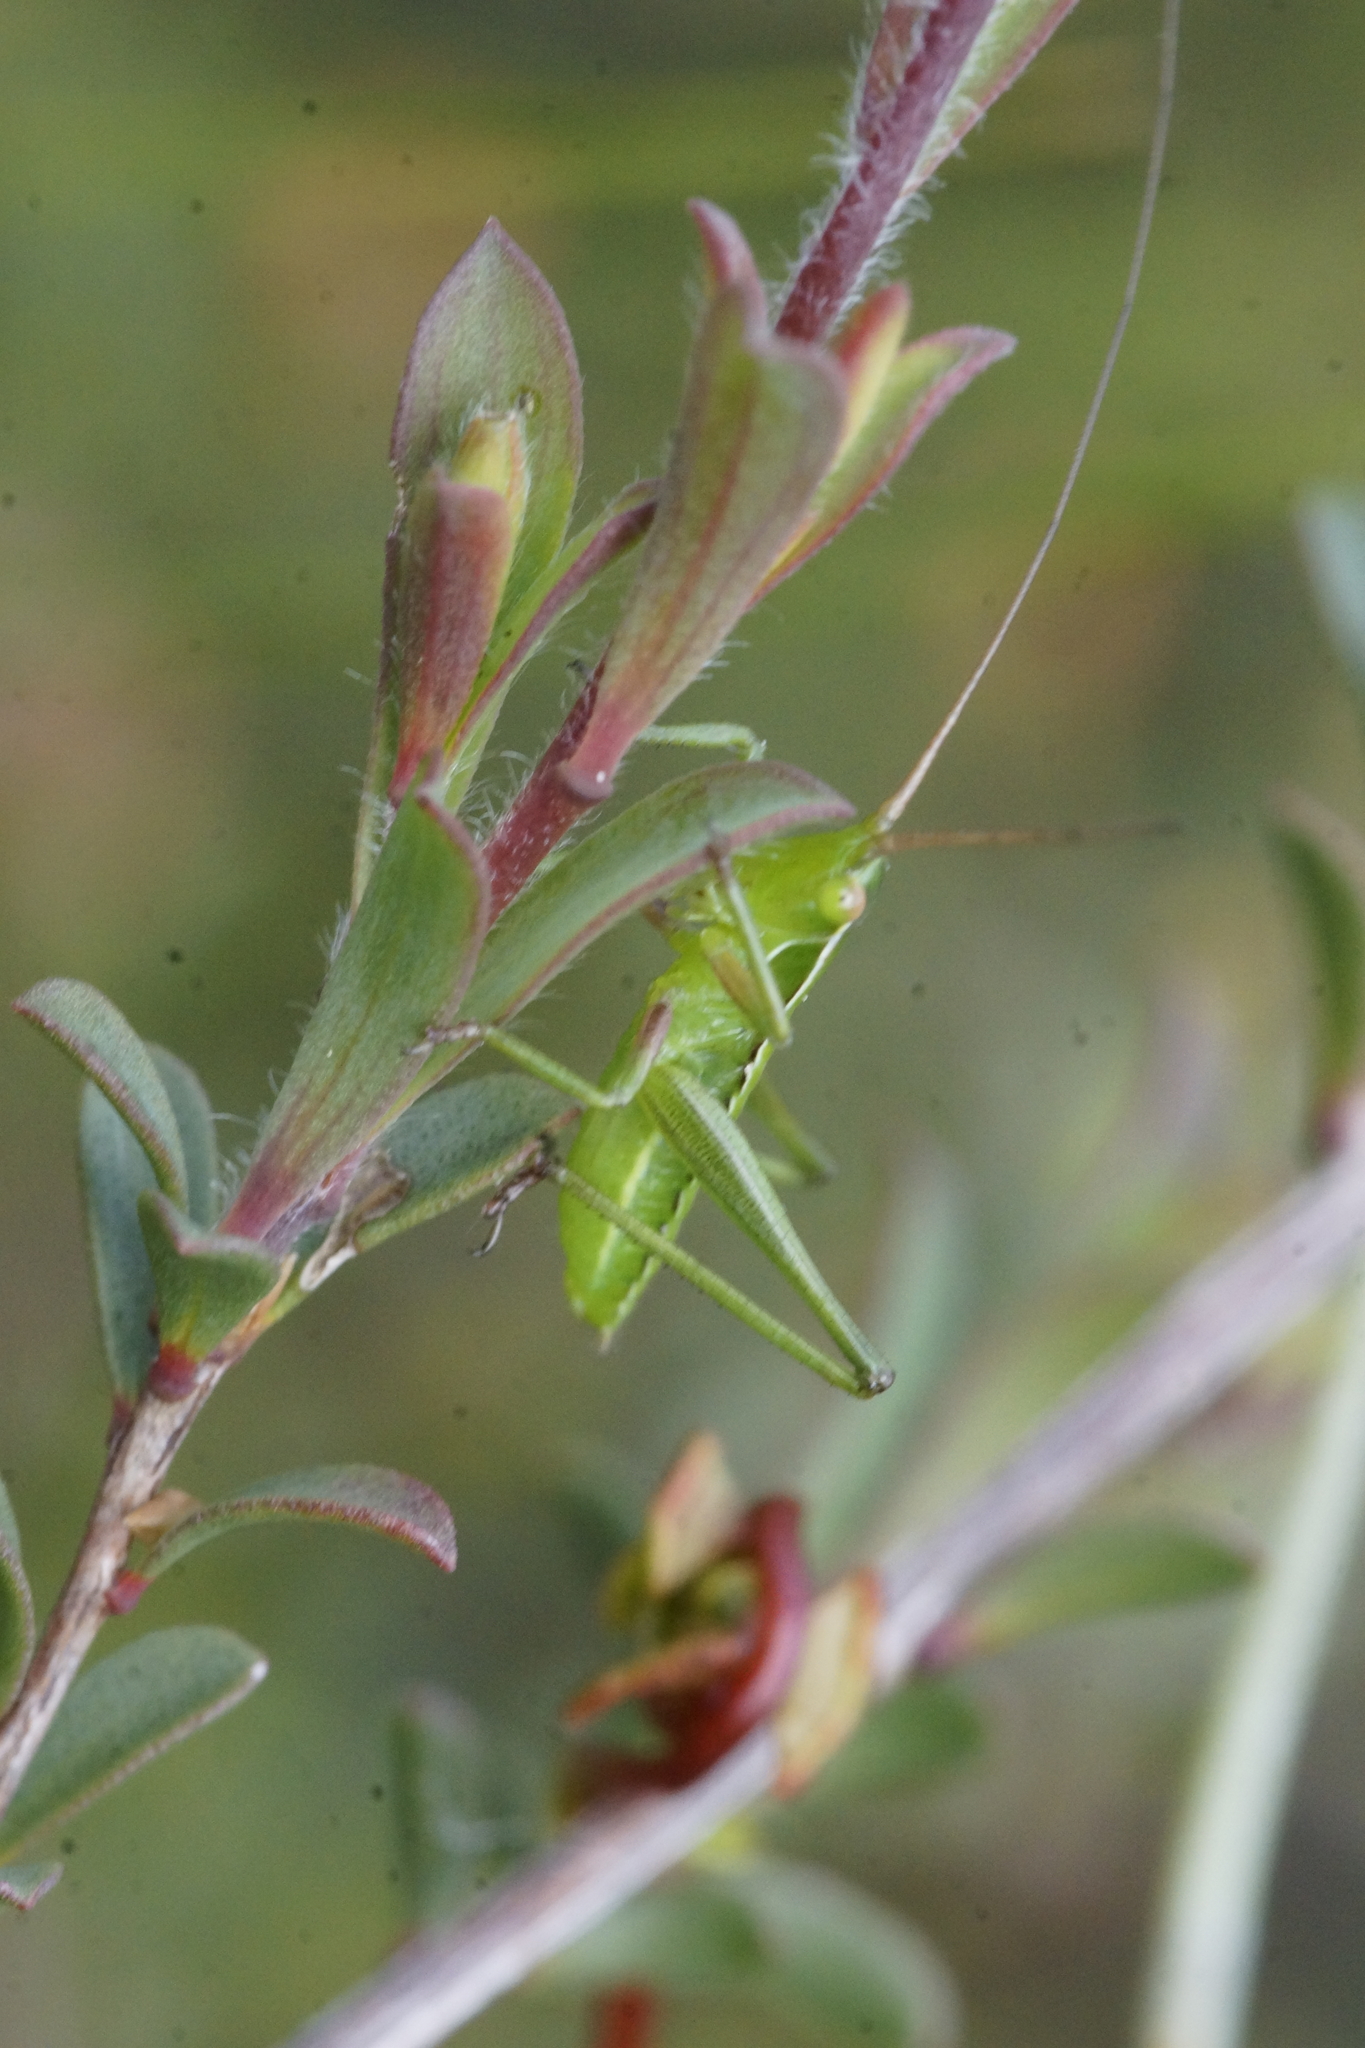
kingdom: Animalia
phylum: Arthropoda
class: Insecta
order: Orthoptera
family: Tettigoniidae
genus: Metaballus
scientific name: Metaballus sagaeformis
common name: Adelaide marauding katydid
